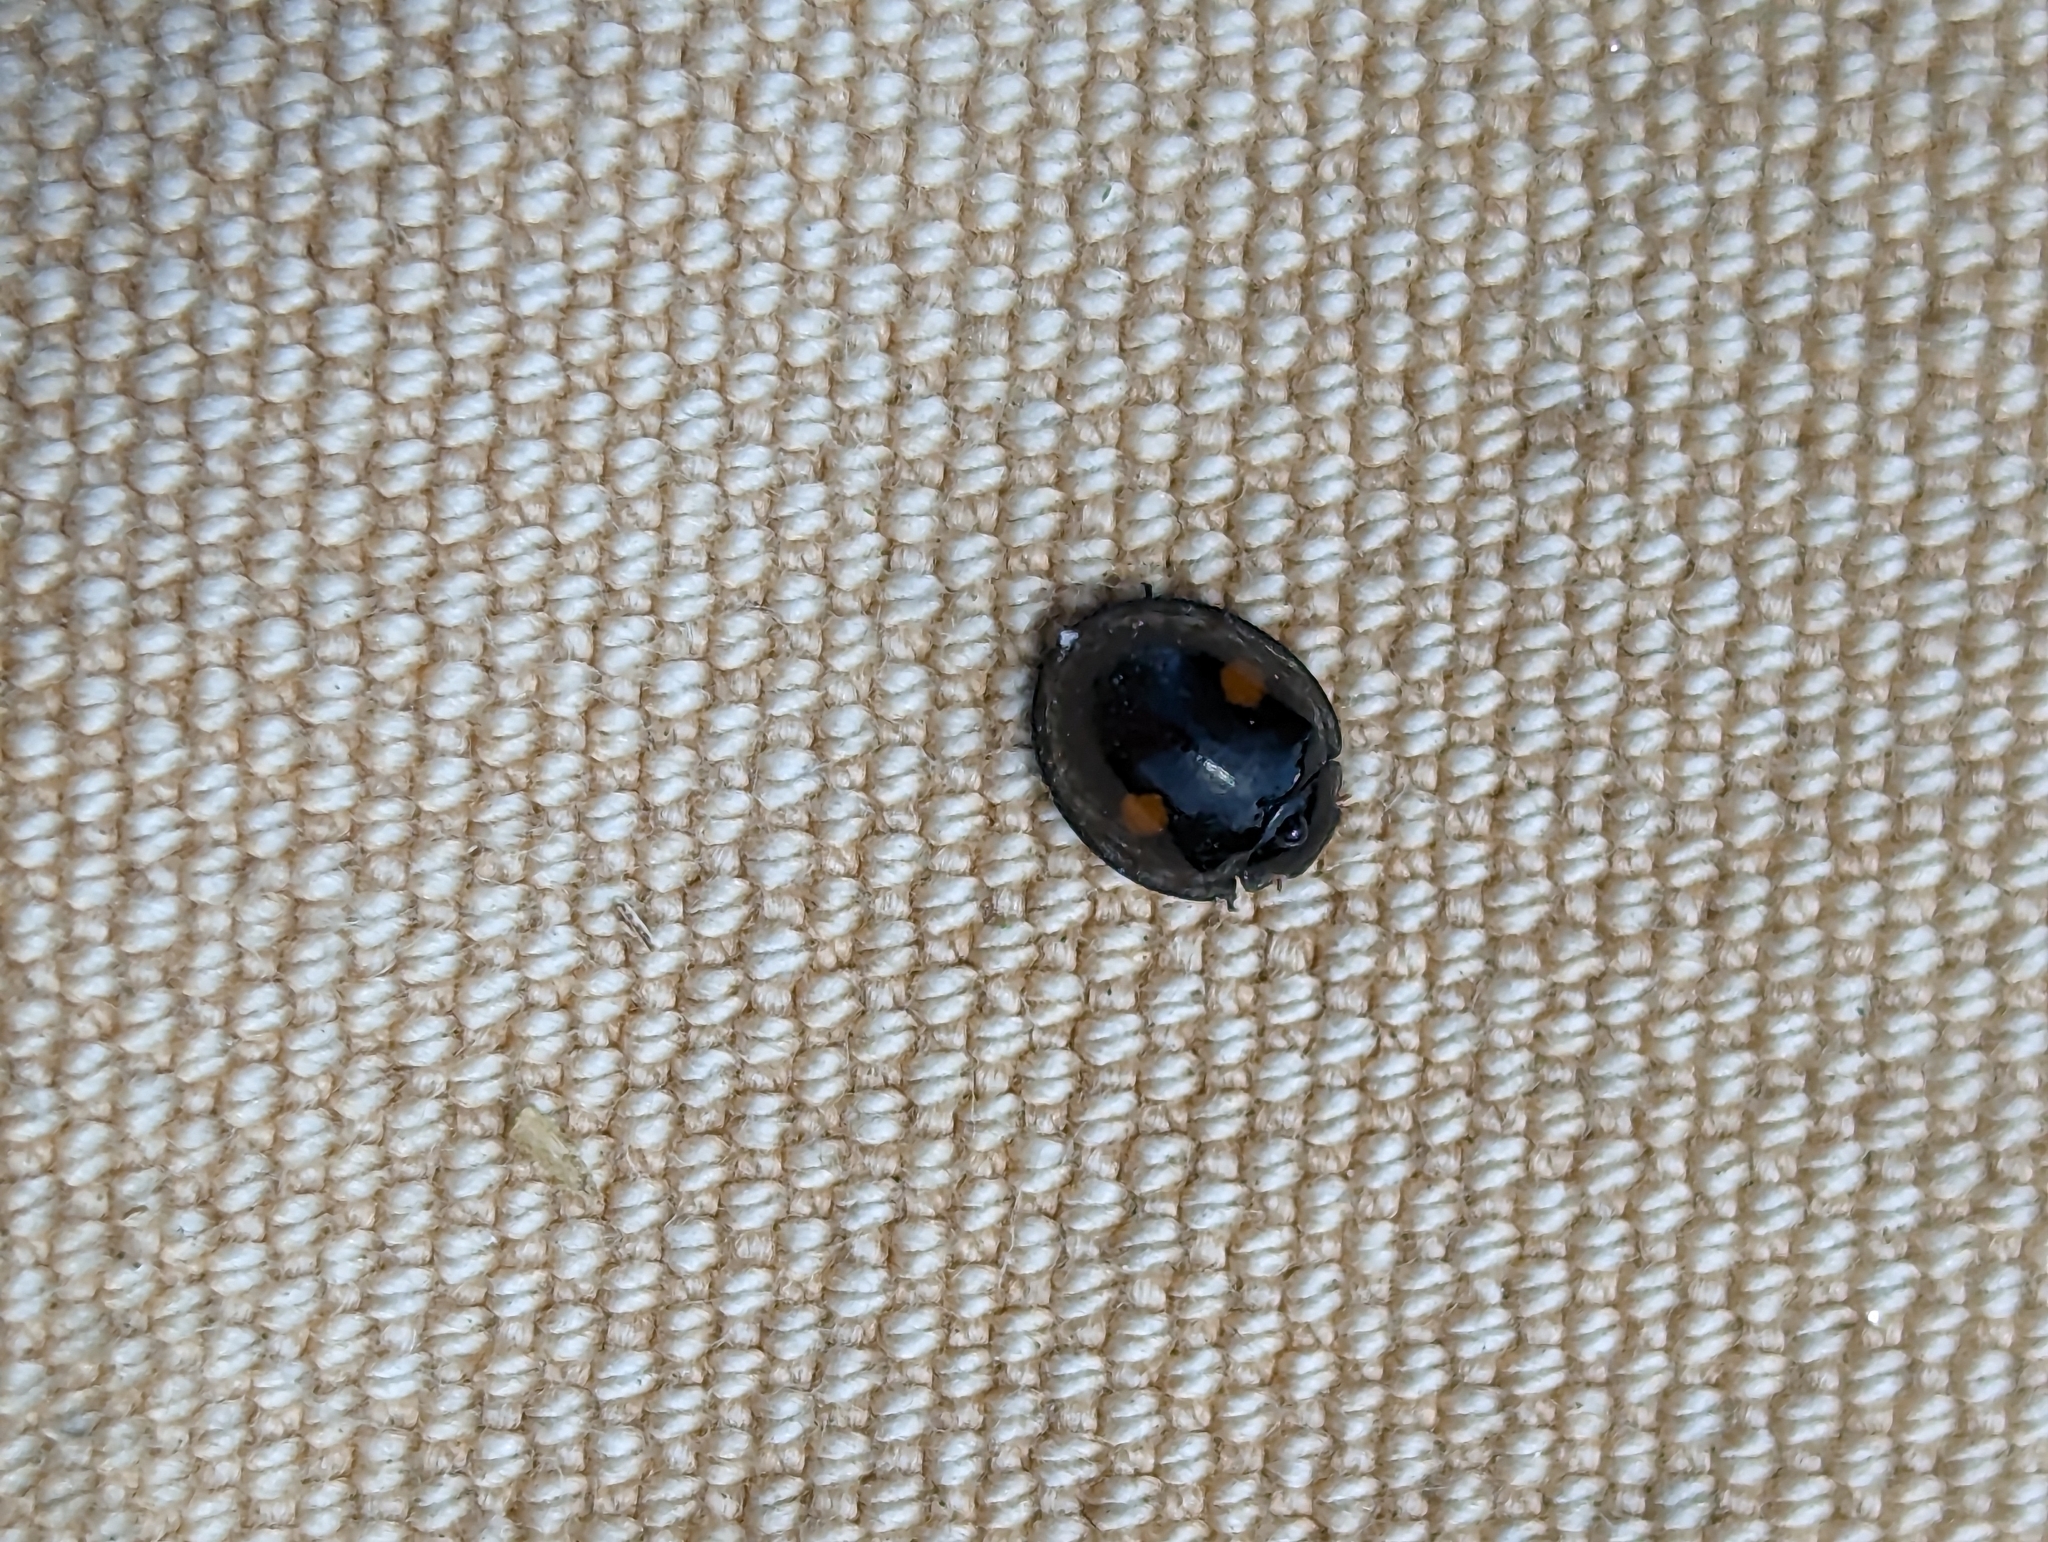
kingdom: Animalia
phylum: Arthropoda
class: Insecta
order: Coleoptera
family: Coccinellidae
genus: Chilocorus
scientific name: Chilocorus stigma
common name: Twicestabbed lady beetle
